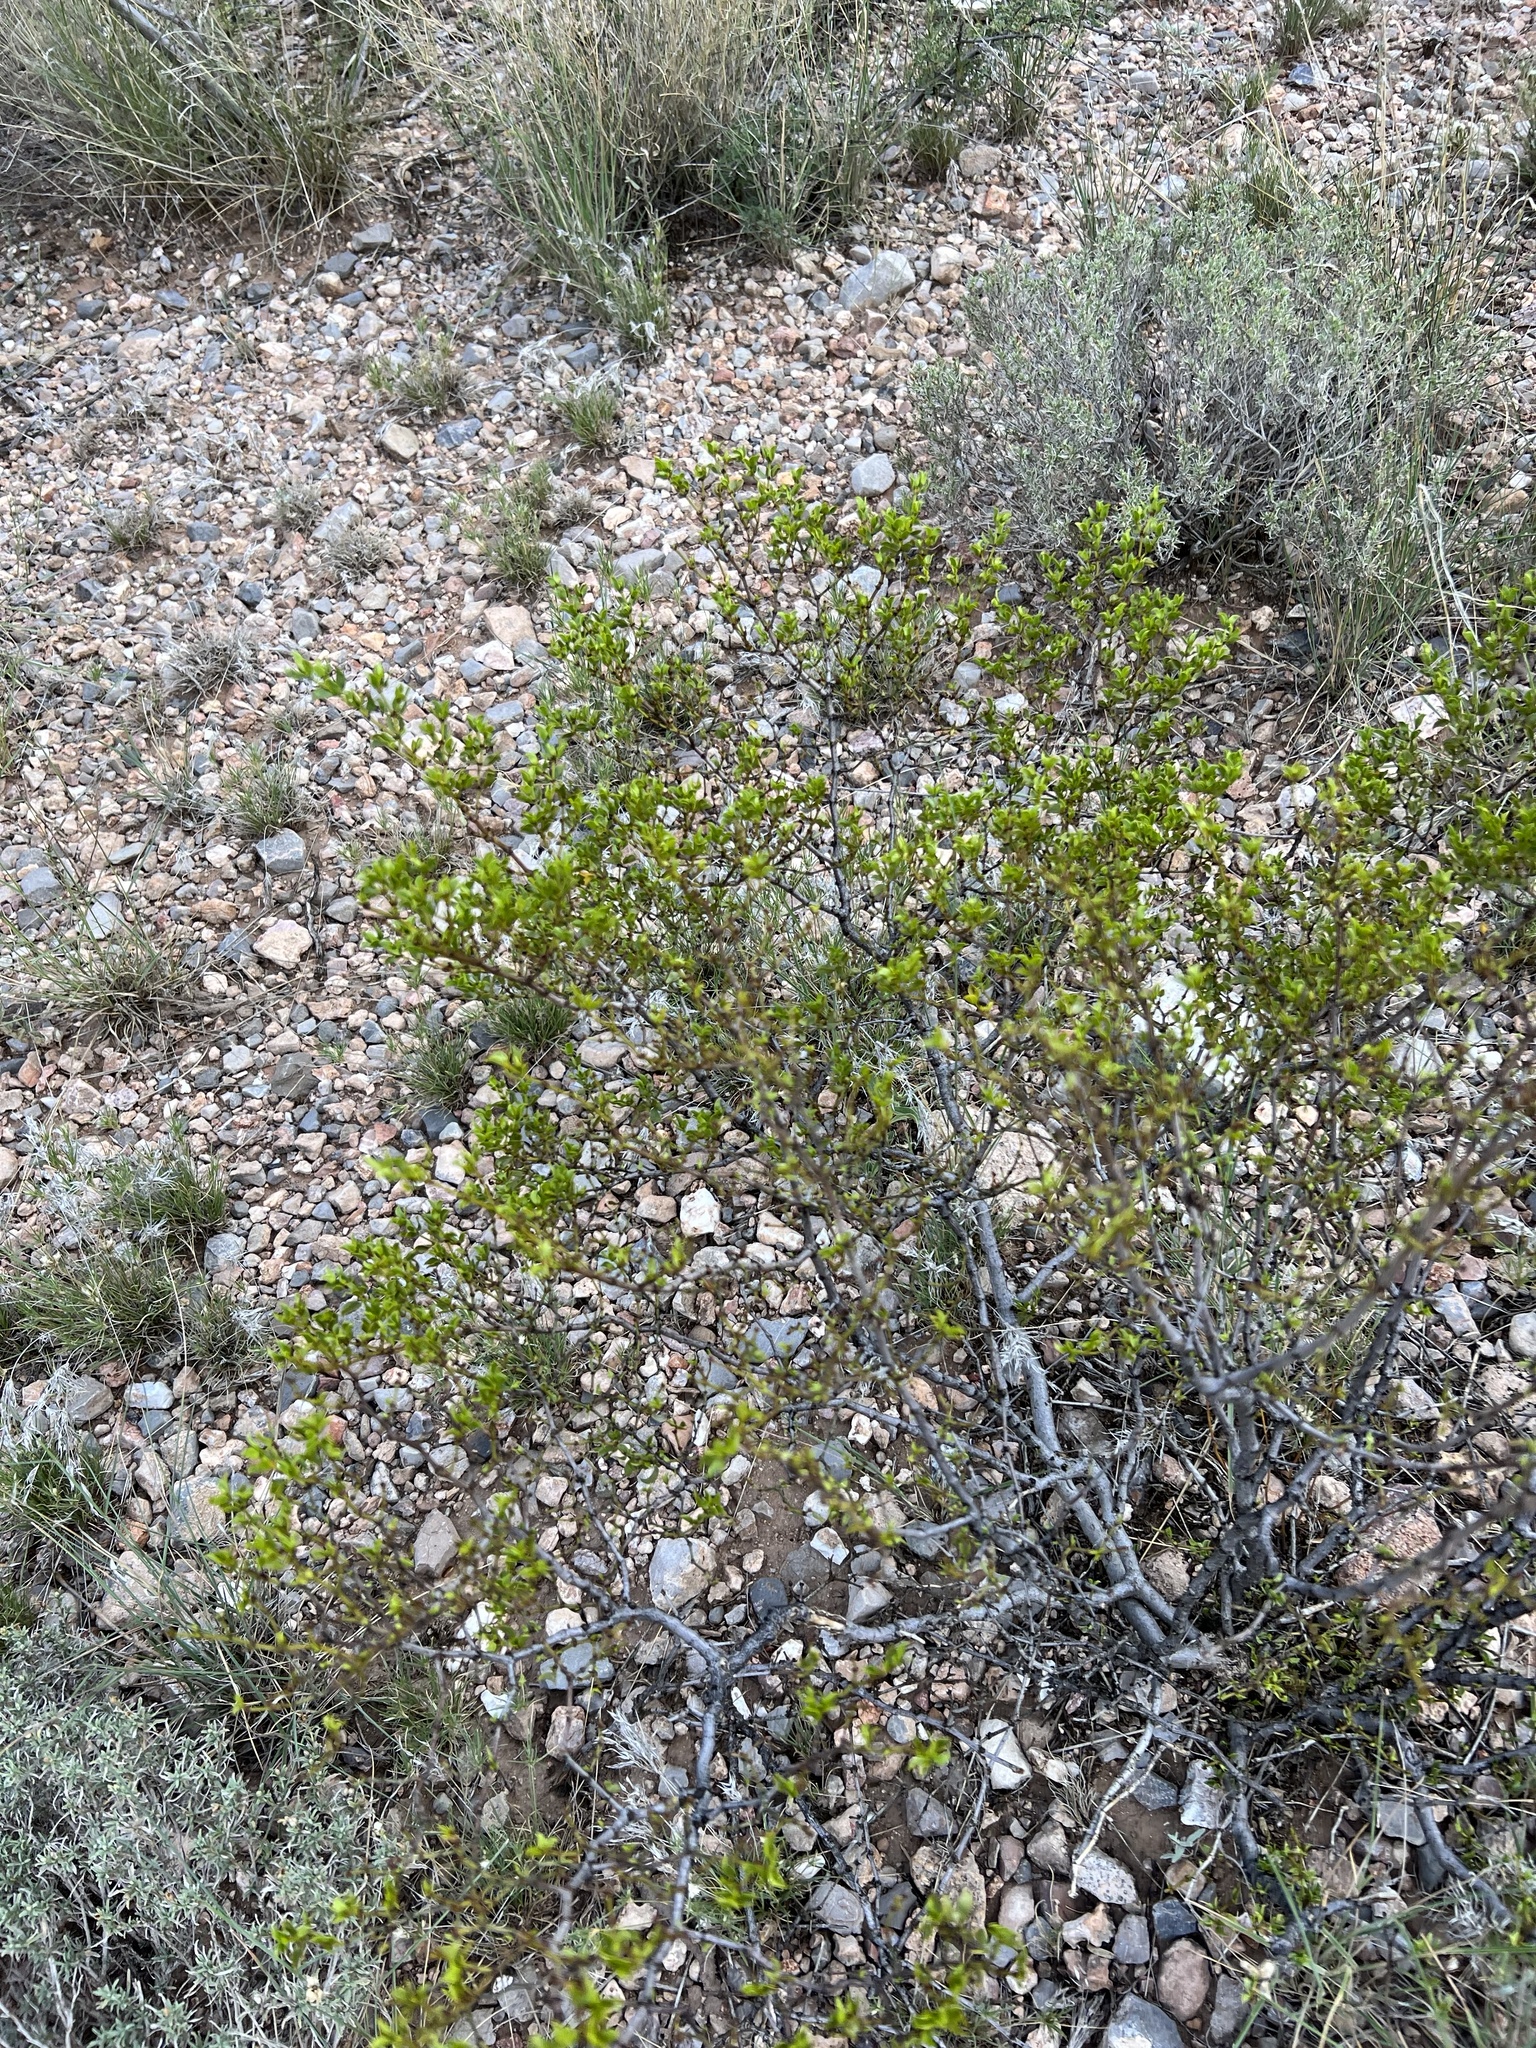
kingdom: Plantae
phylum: Tracheophyta
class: Magnoliopsida
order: Zygophyllales
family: Zygophyllaceae
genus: Larrea
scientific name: Larrea tridentata
